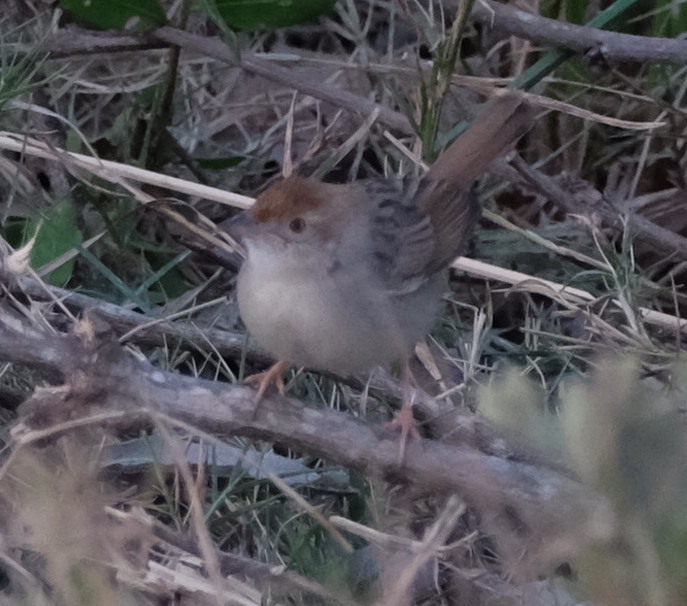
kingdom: Animalia
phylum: Chordata
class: Aves
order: Passeriformes
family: Cisticolidae
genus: Cisticola
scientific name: Cisticola chiniana
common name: Rattling cisticola
